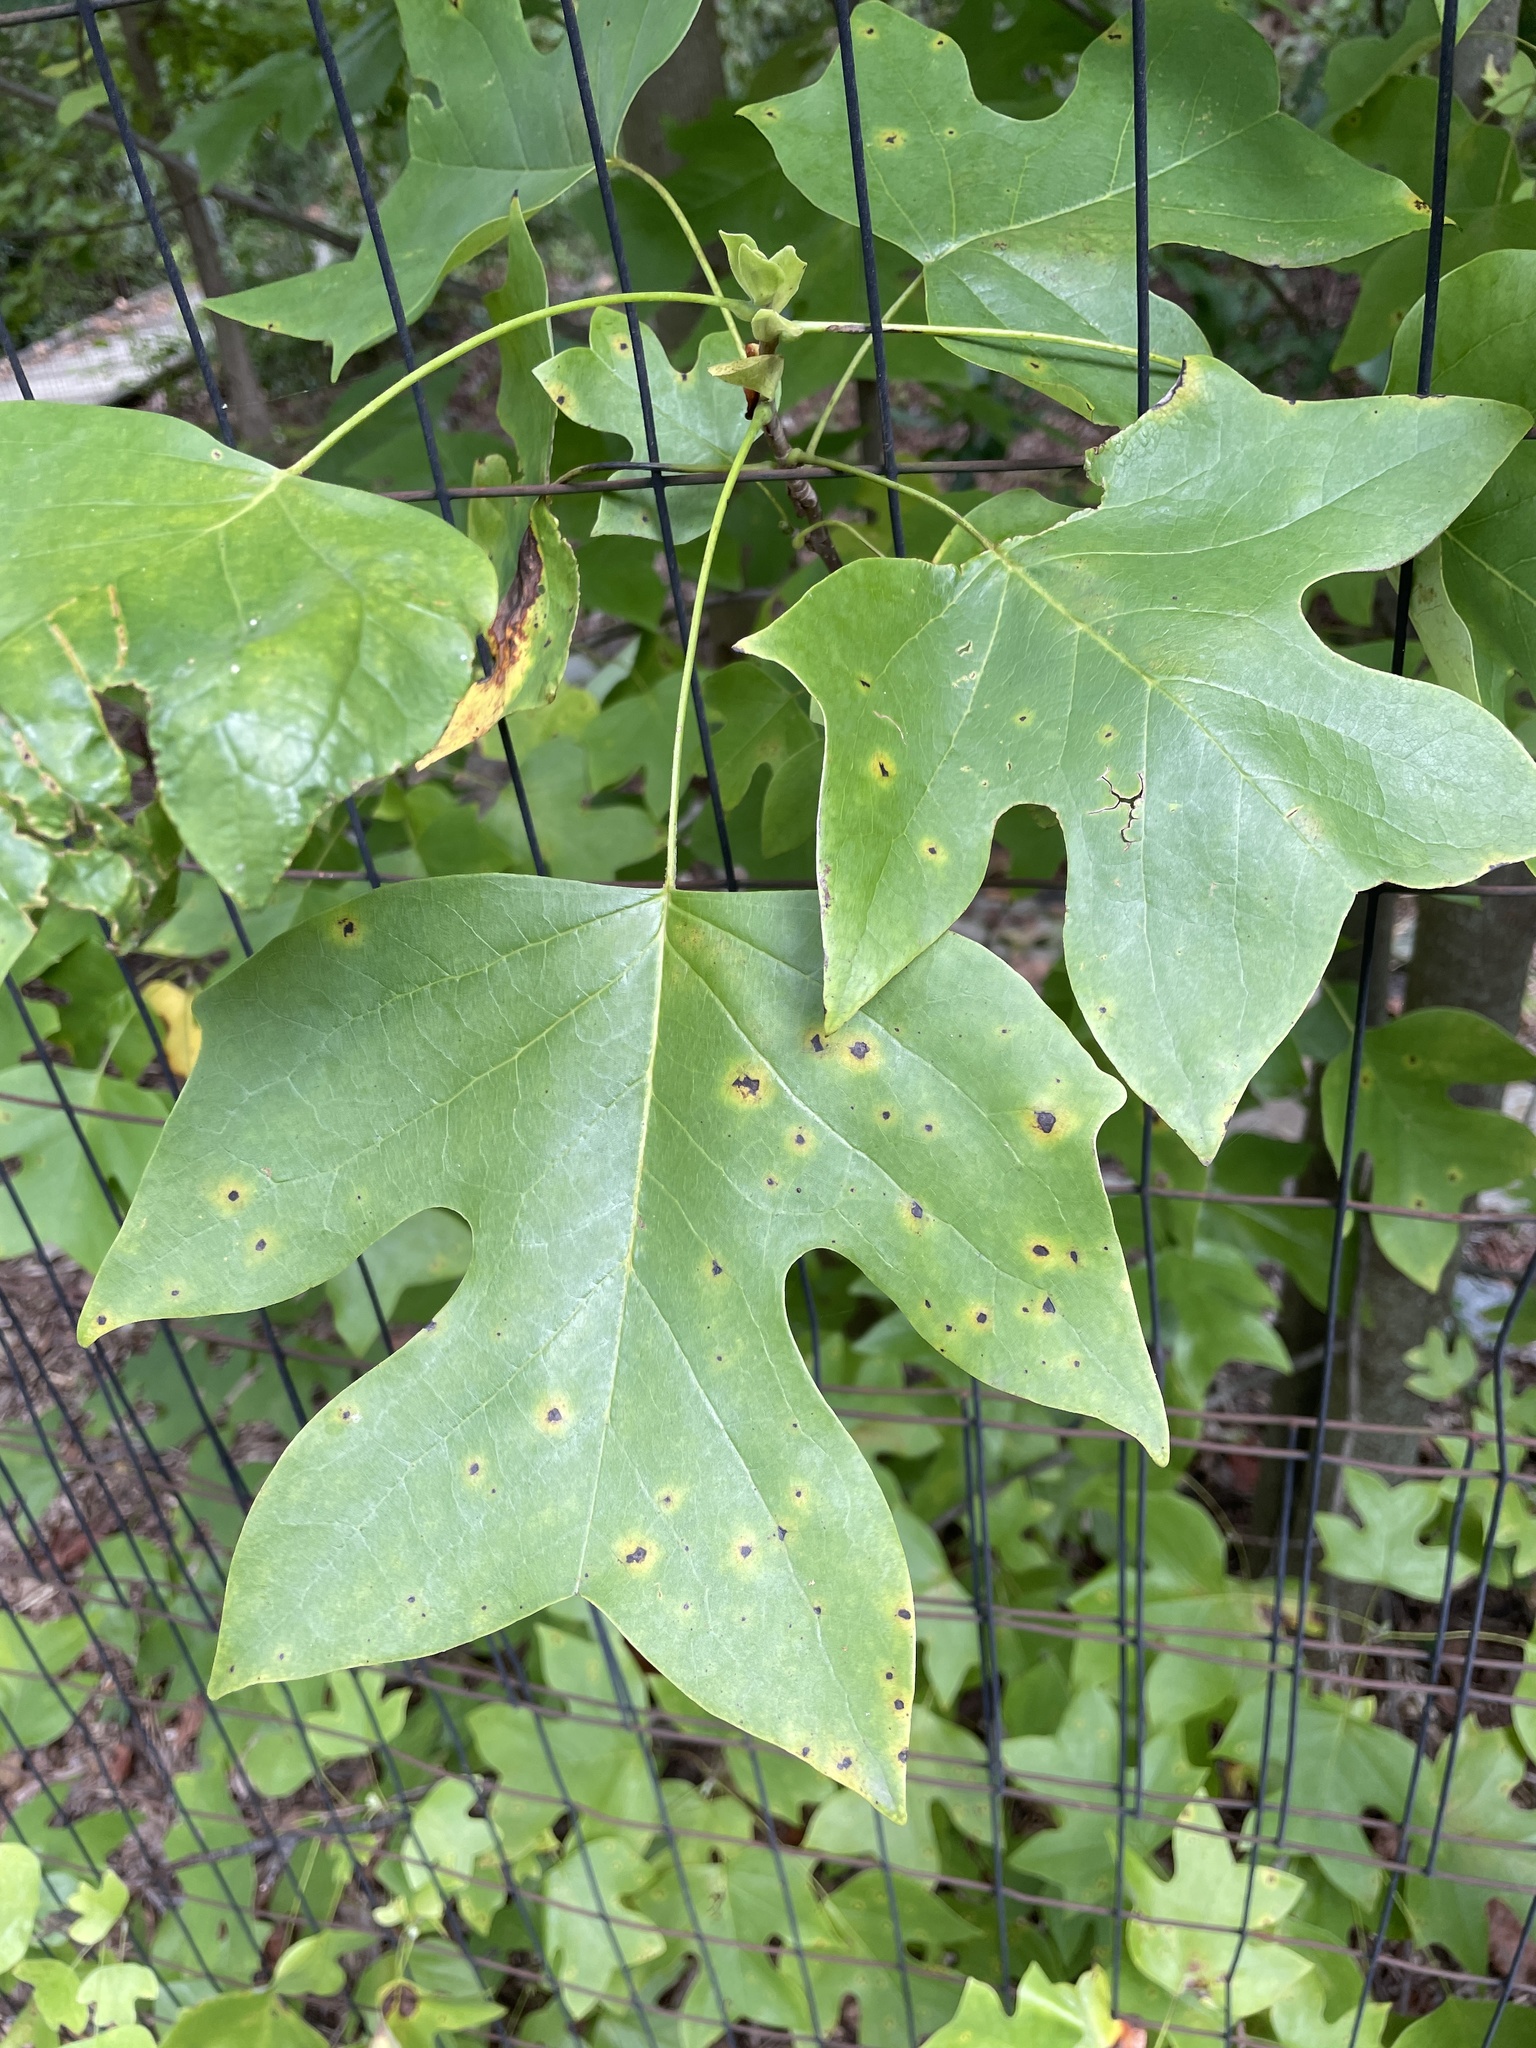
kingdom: Plantae
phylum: Tracheophyta
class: Magnoliopsida
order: Magnoliales
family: Magnoliaceae
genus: Liriodendron
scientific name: Liriodendron tulipifera
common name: Tulip tree
